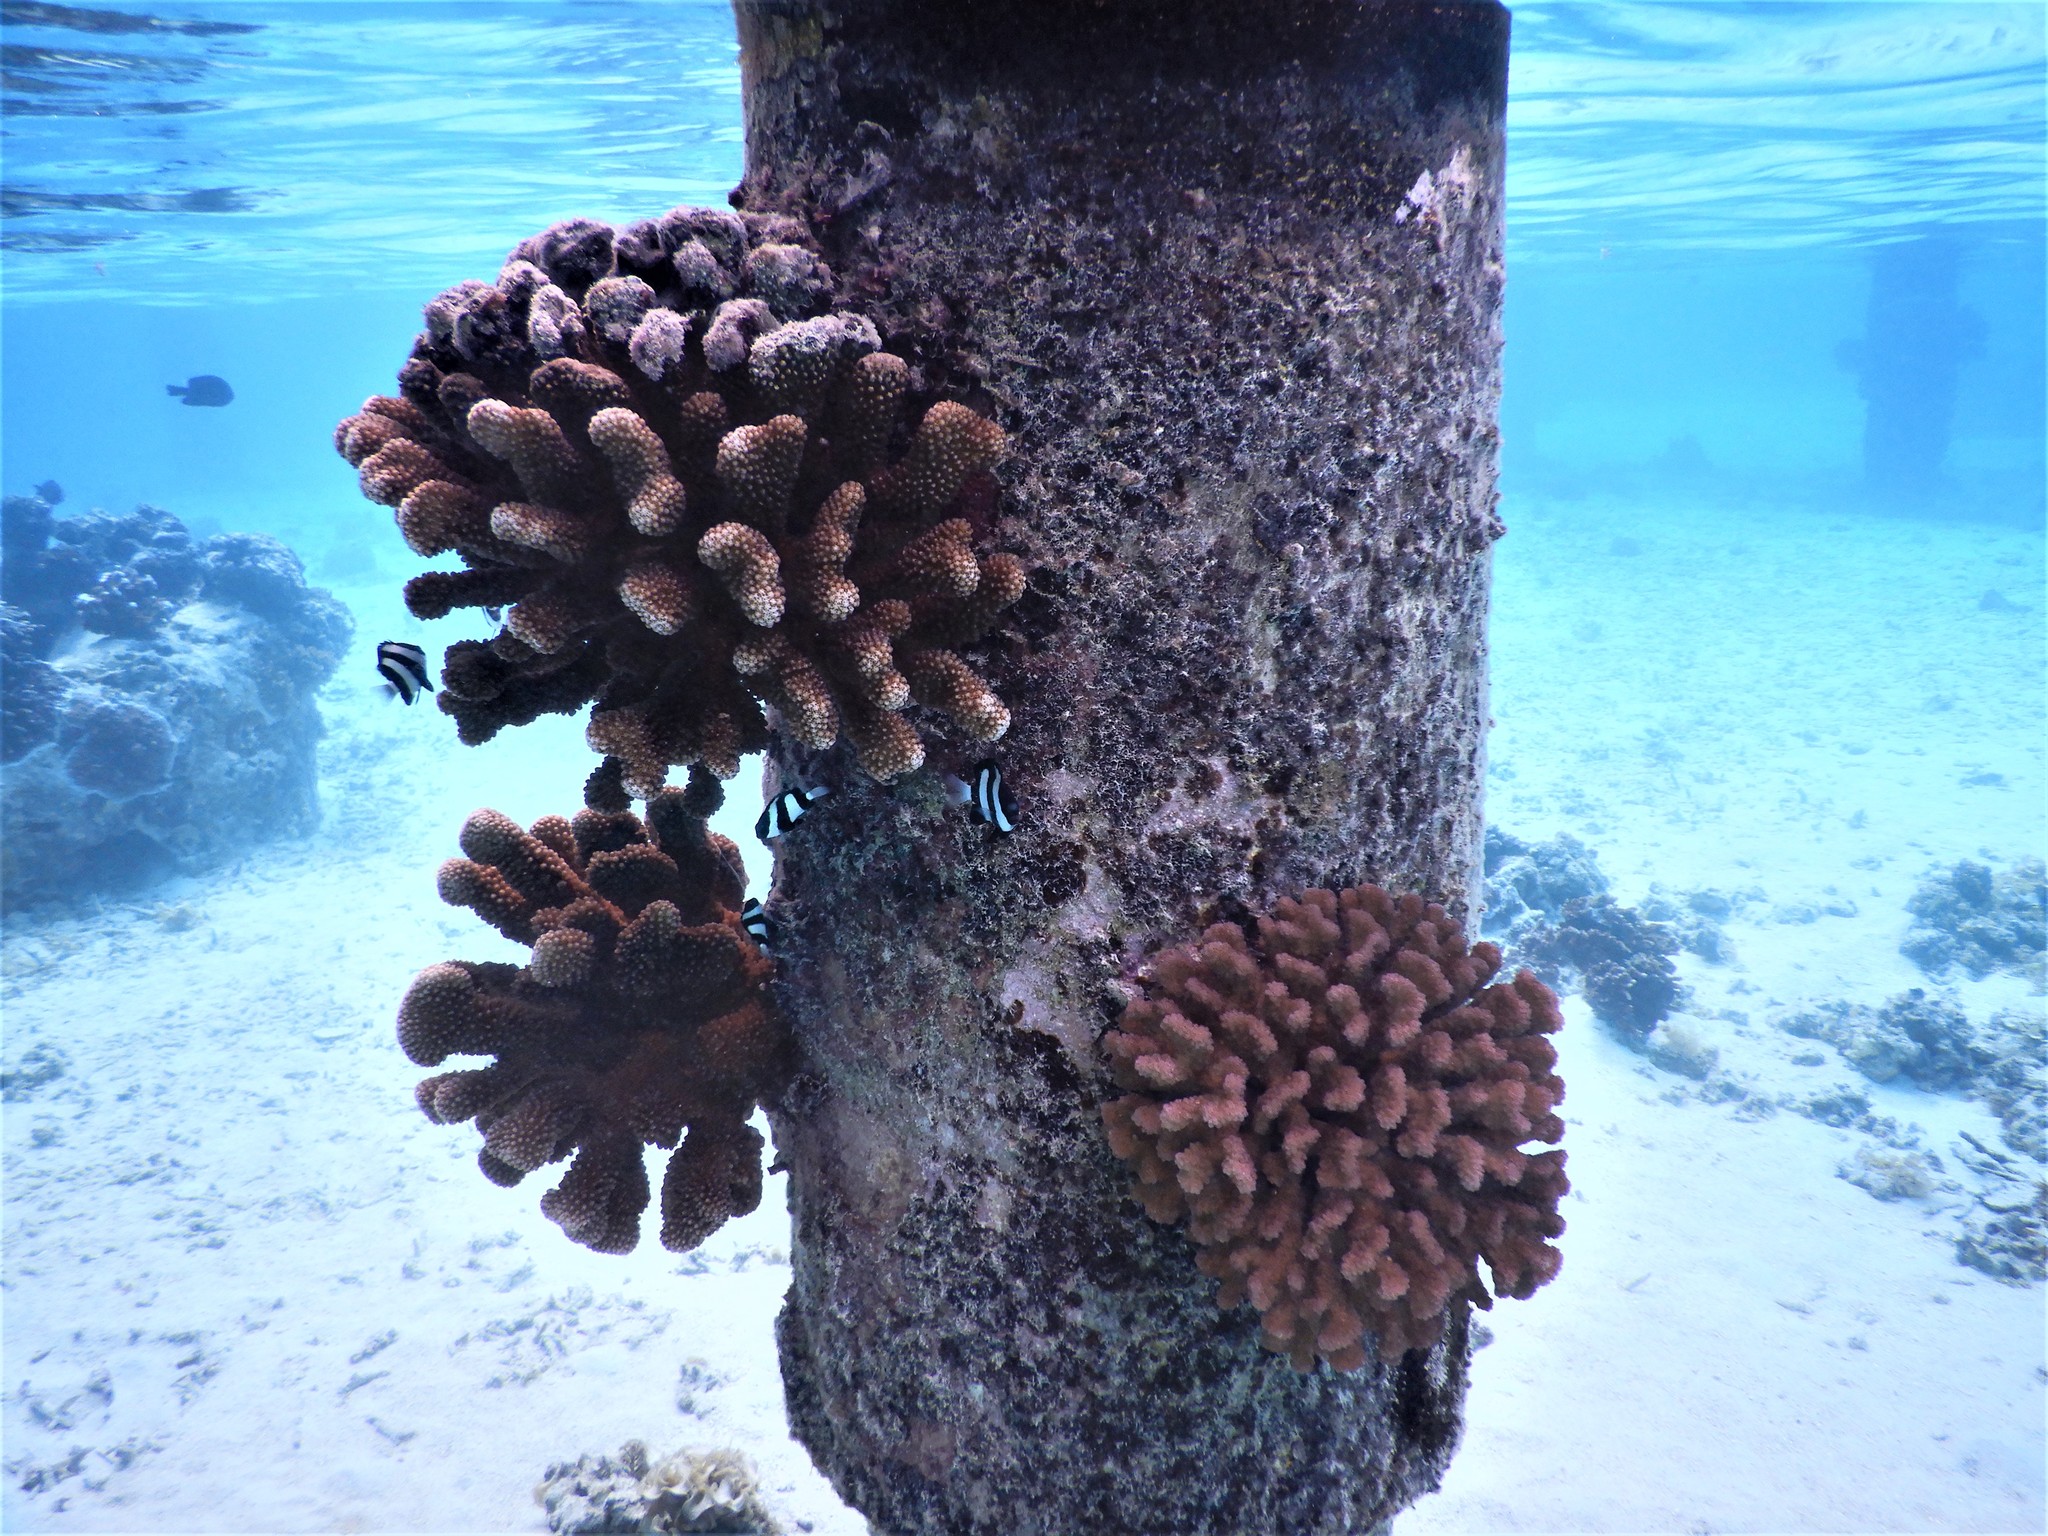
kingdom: Animalia
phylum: Chordata
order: Perciformes
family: Pomacentridae
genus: Dascyllus
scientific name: Dascyllus aruanus
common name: Humbug dascyllus
